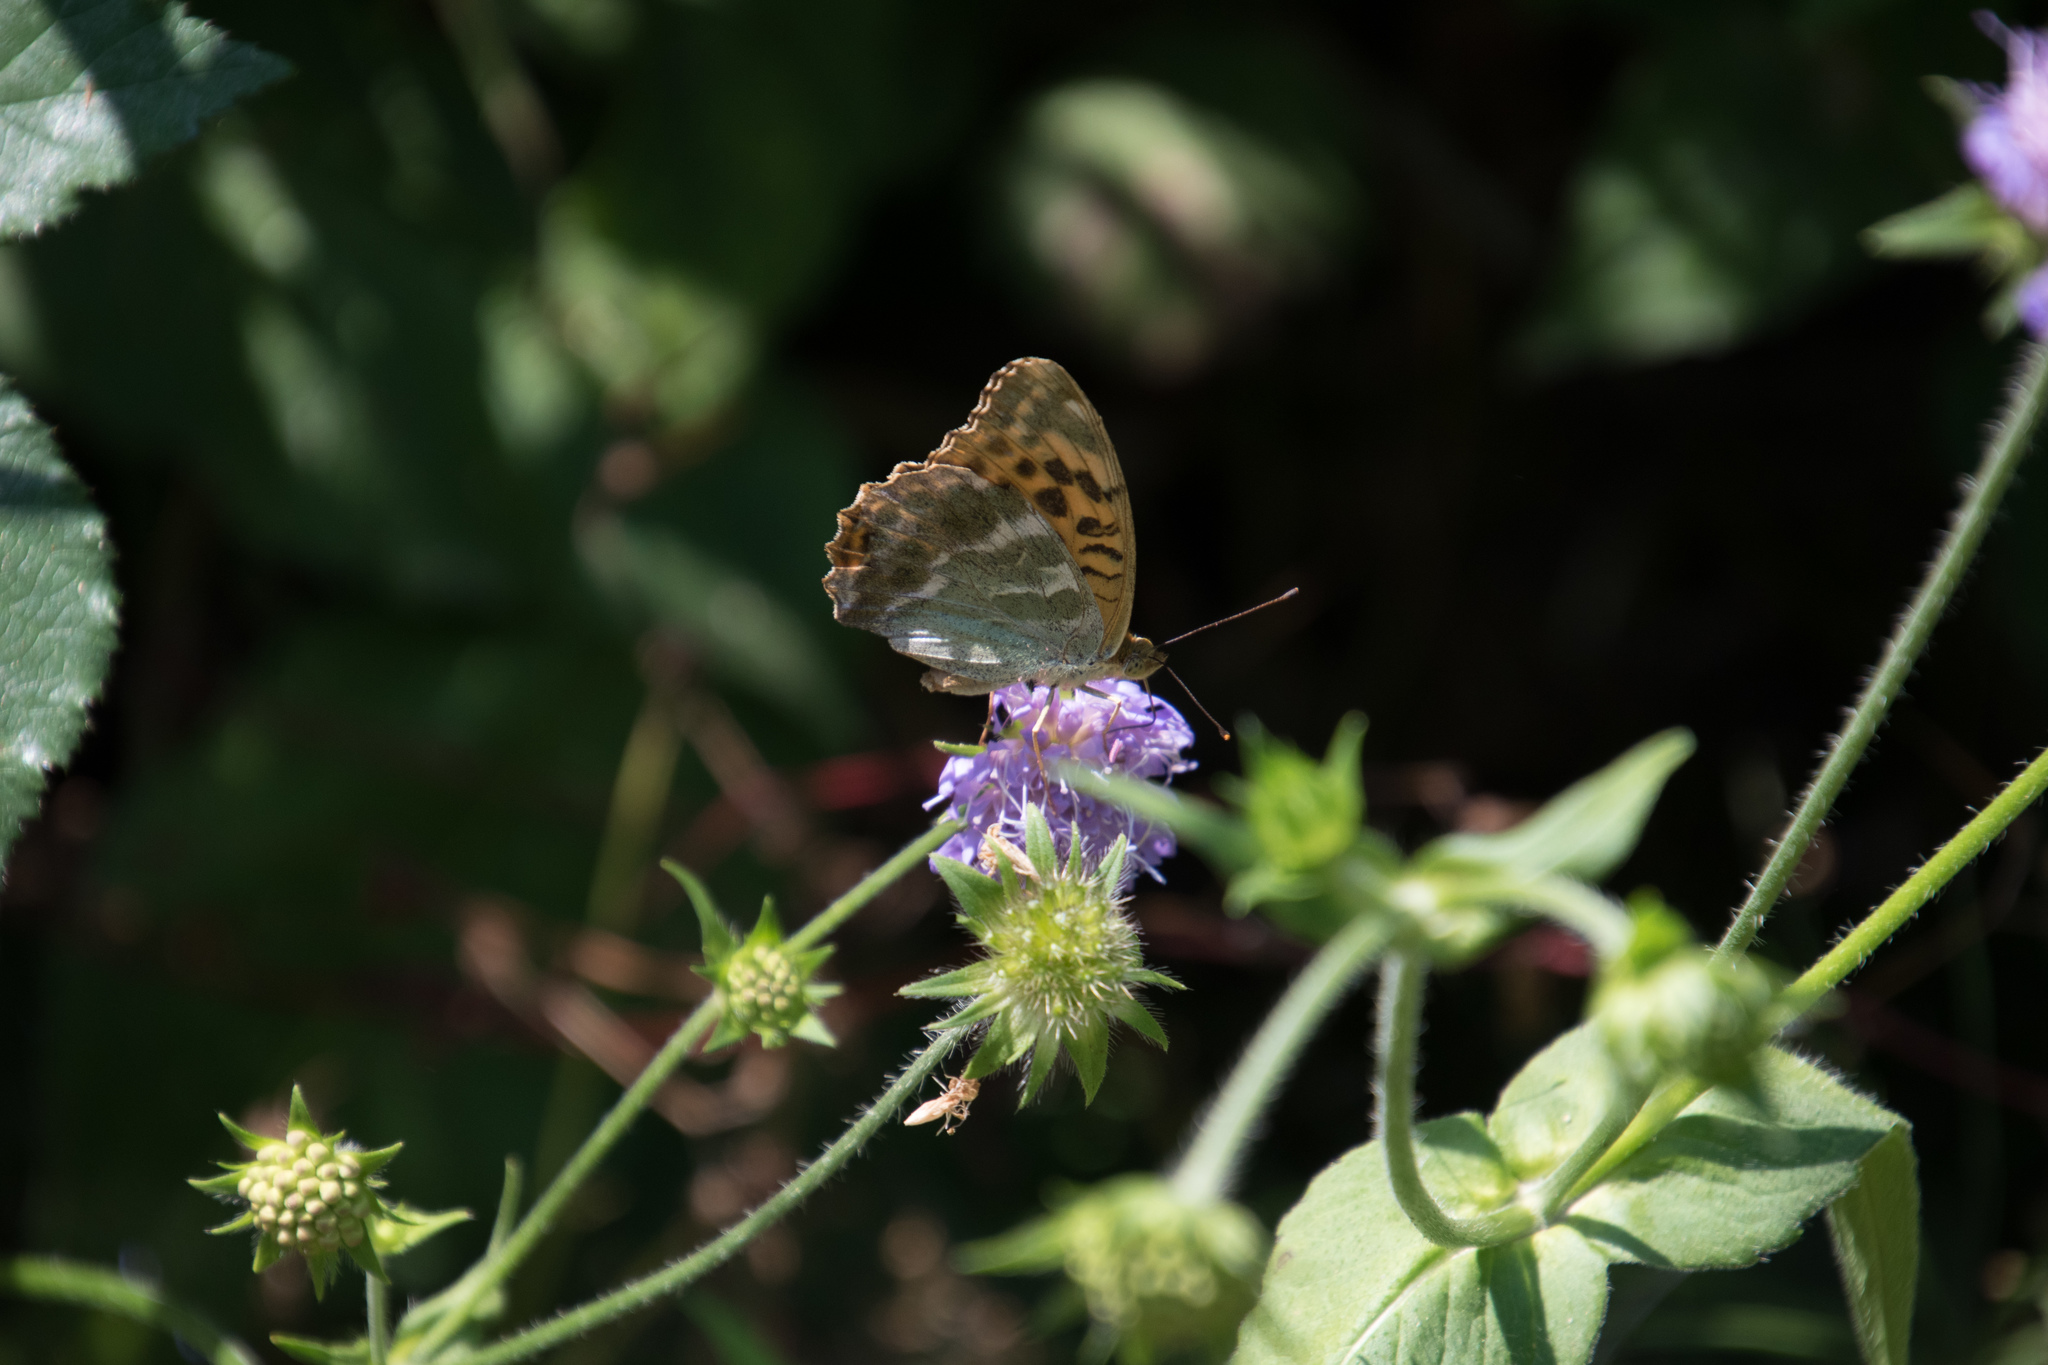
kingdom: Animalia
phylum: Arthropoda
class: Insecta
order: Lepidoptera
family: Nymphalidae
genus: Argynnis
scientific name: Argynnis paphia
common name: Silver-washed fritillary
